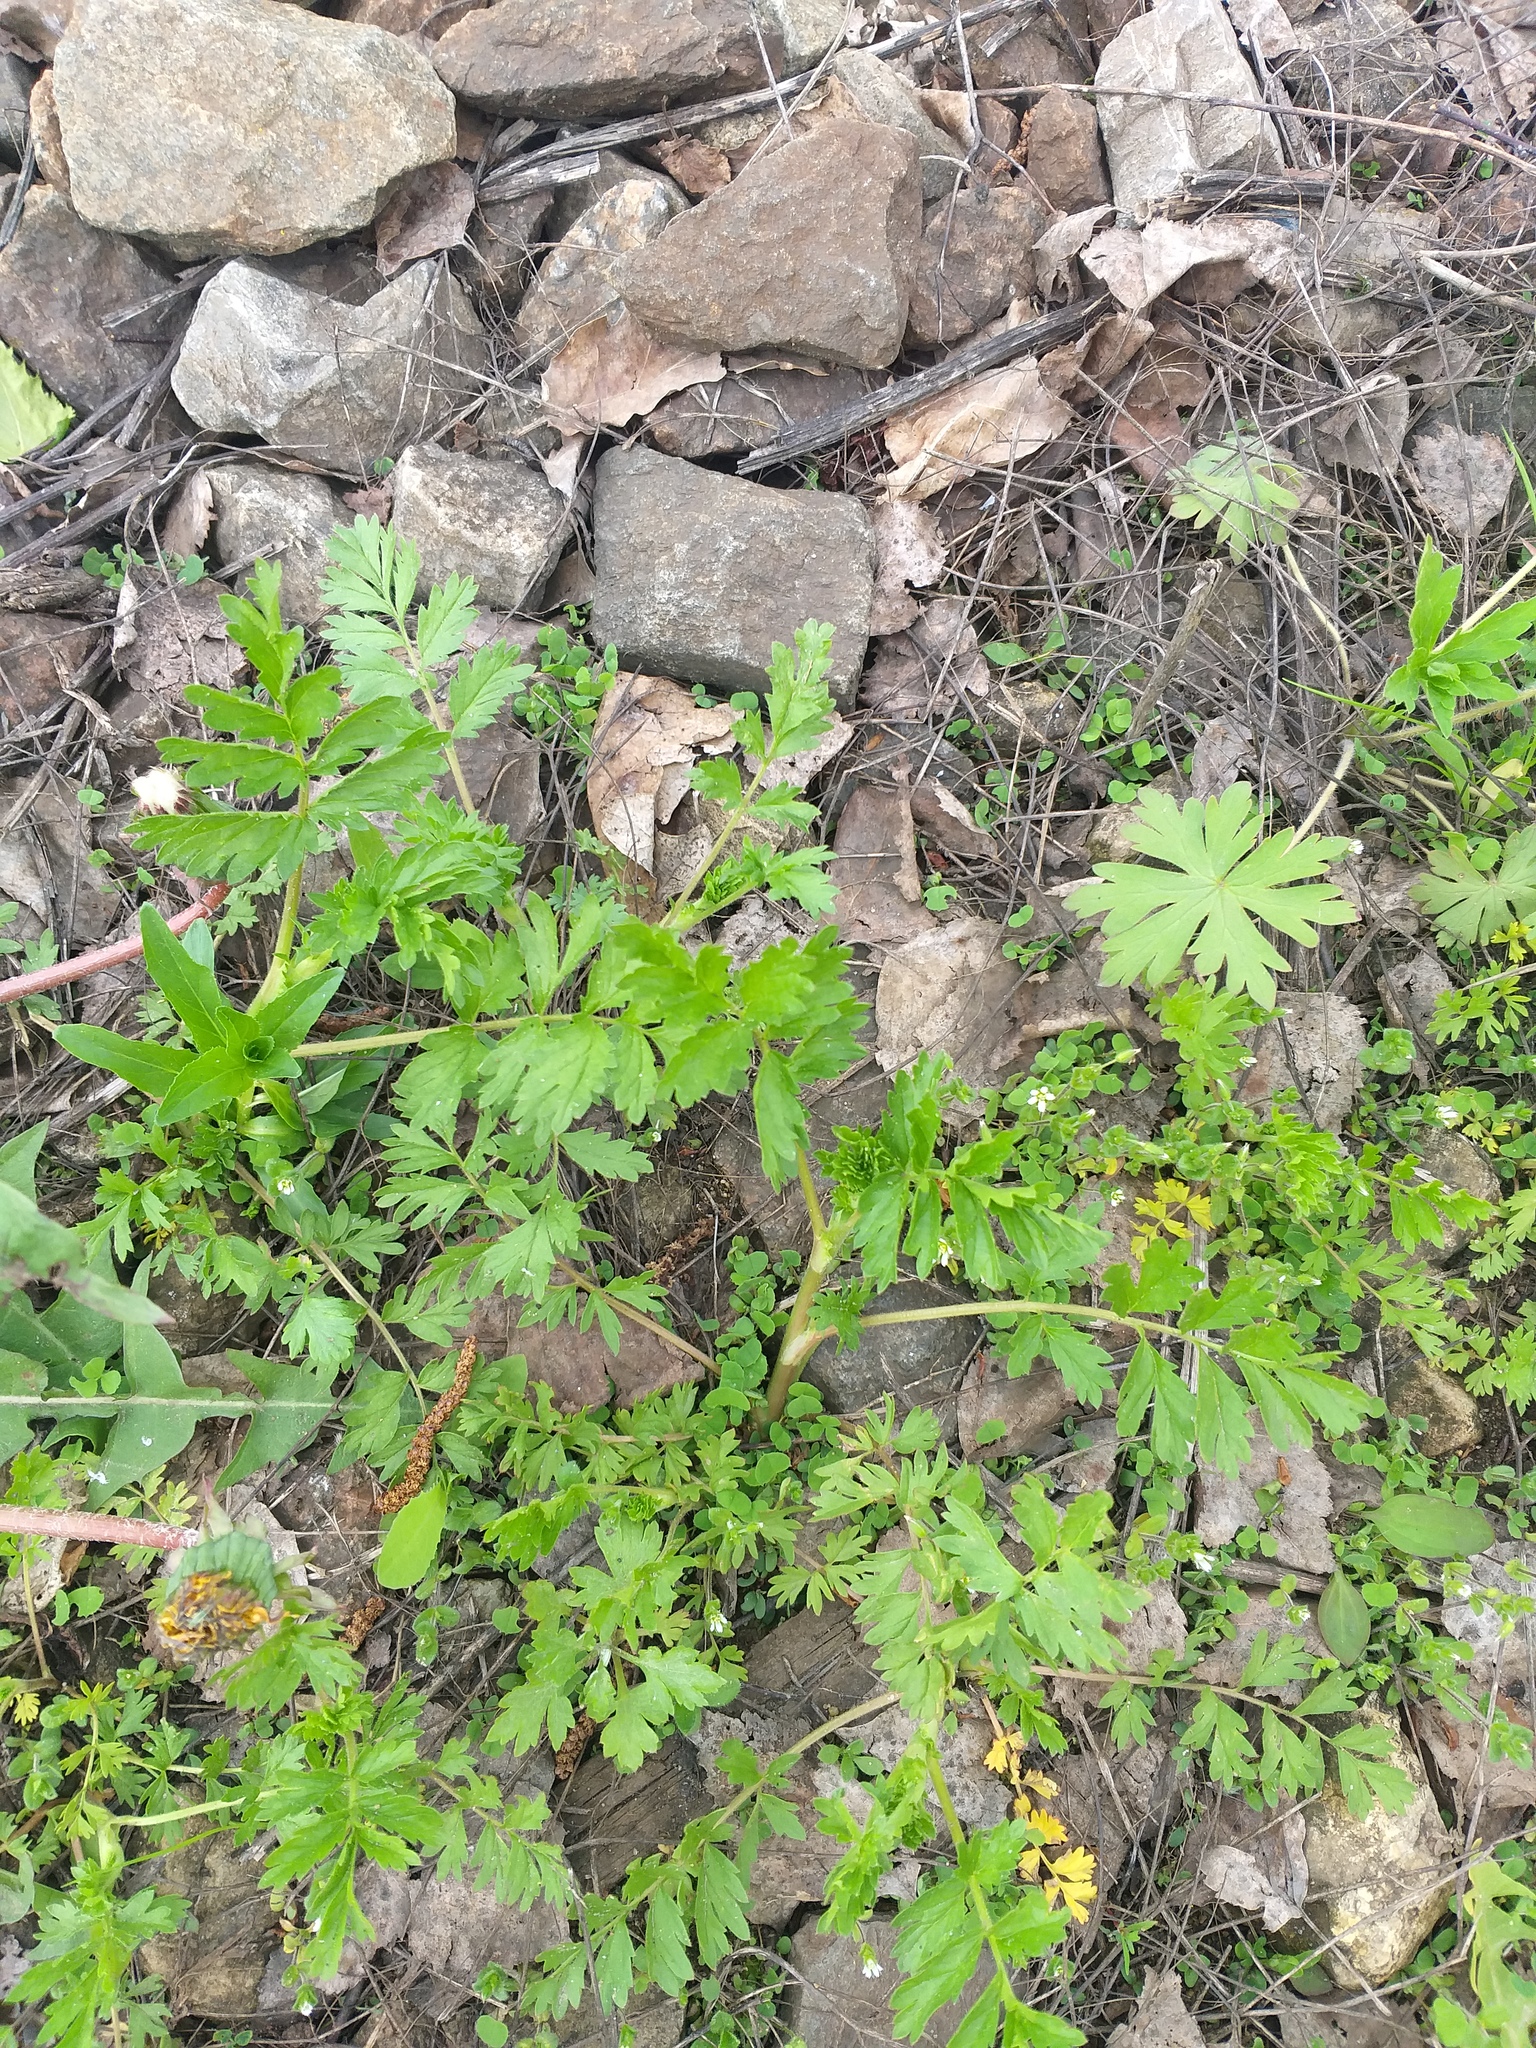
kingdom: Plantae
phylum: Tracheophyta
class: Magnoliopsida
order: Rosales
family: Rosaceae
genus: Potentilla
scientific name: Potentilla supina
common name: Prostrate cinquefoil
